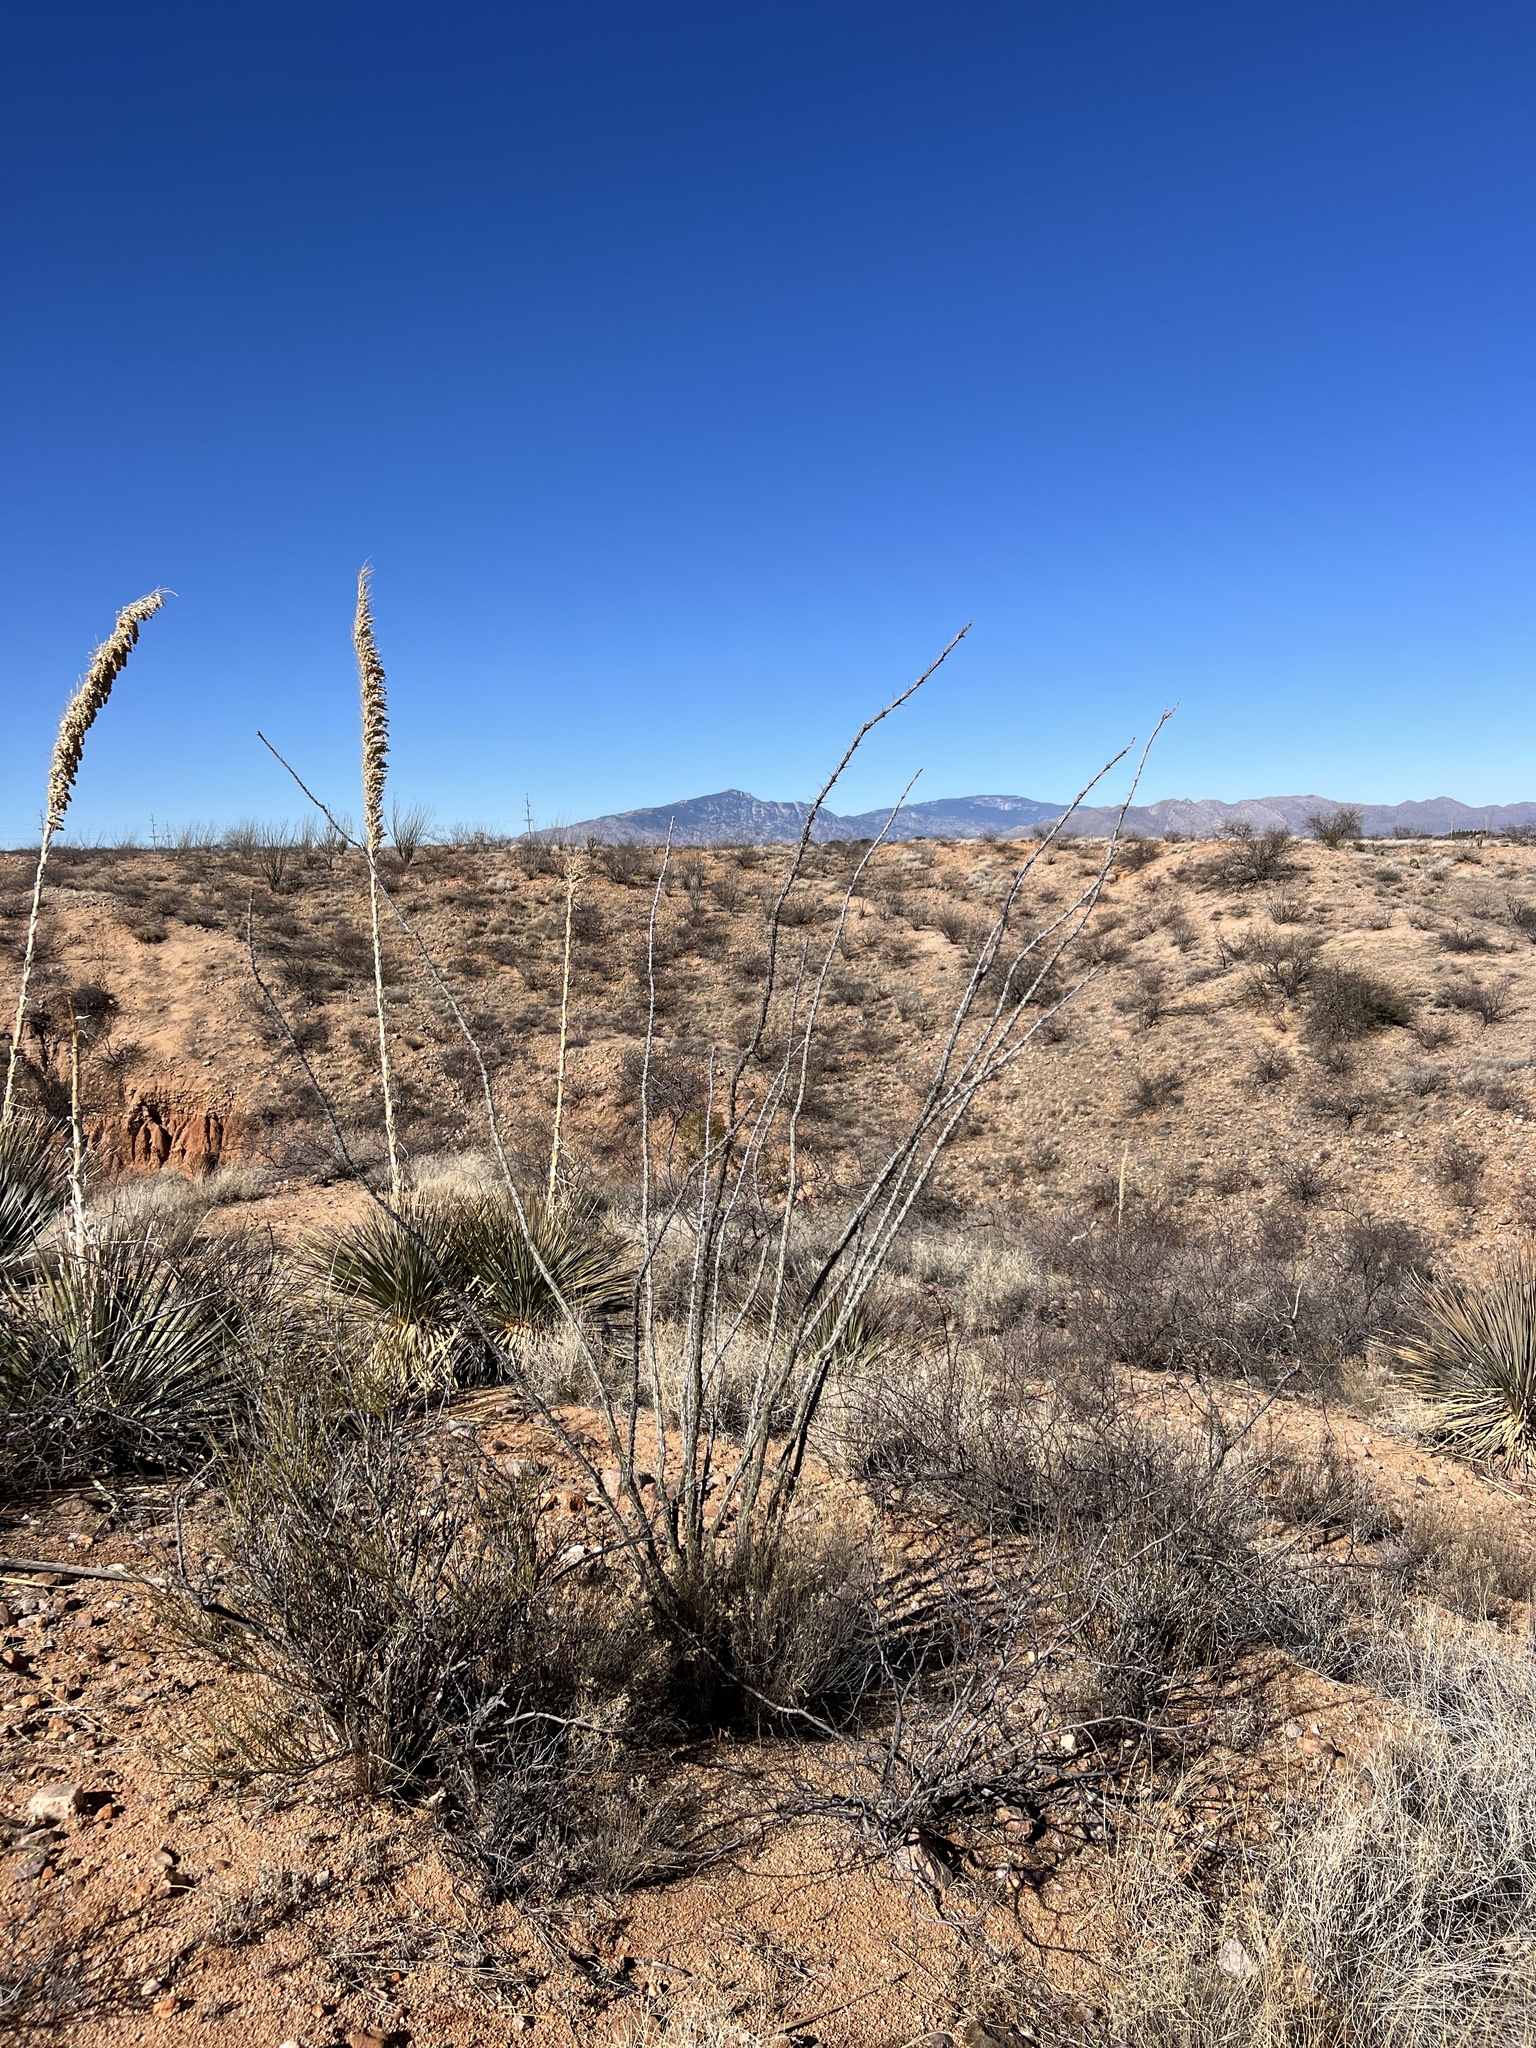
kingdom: Plantae
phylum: Tracheophyta
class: Magnoliopsida
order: Ericales
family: Fouquieriaceae
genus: Fouquieria
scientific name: Fouquieria splendens
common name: Vine-cactus
